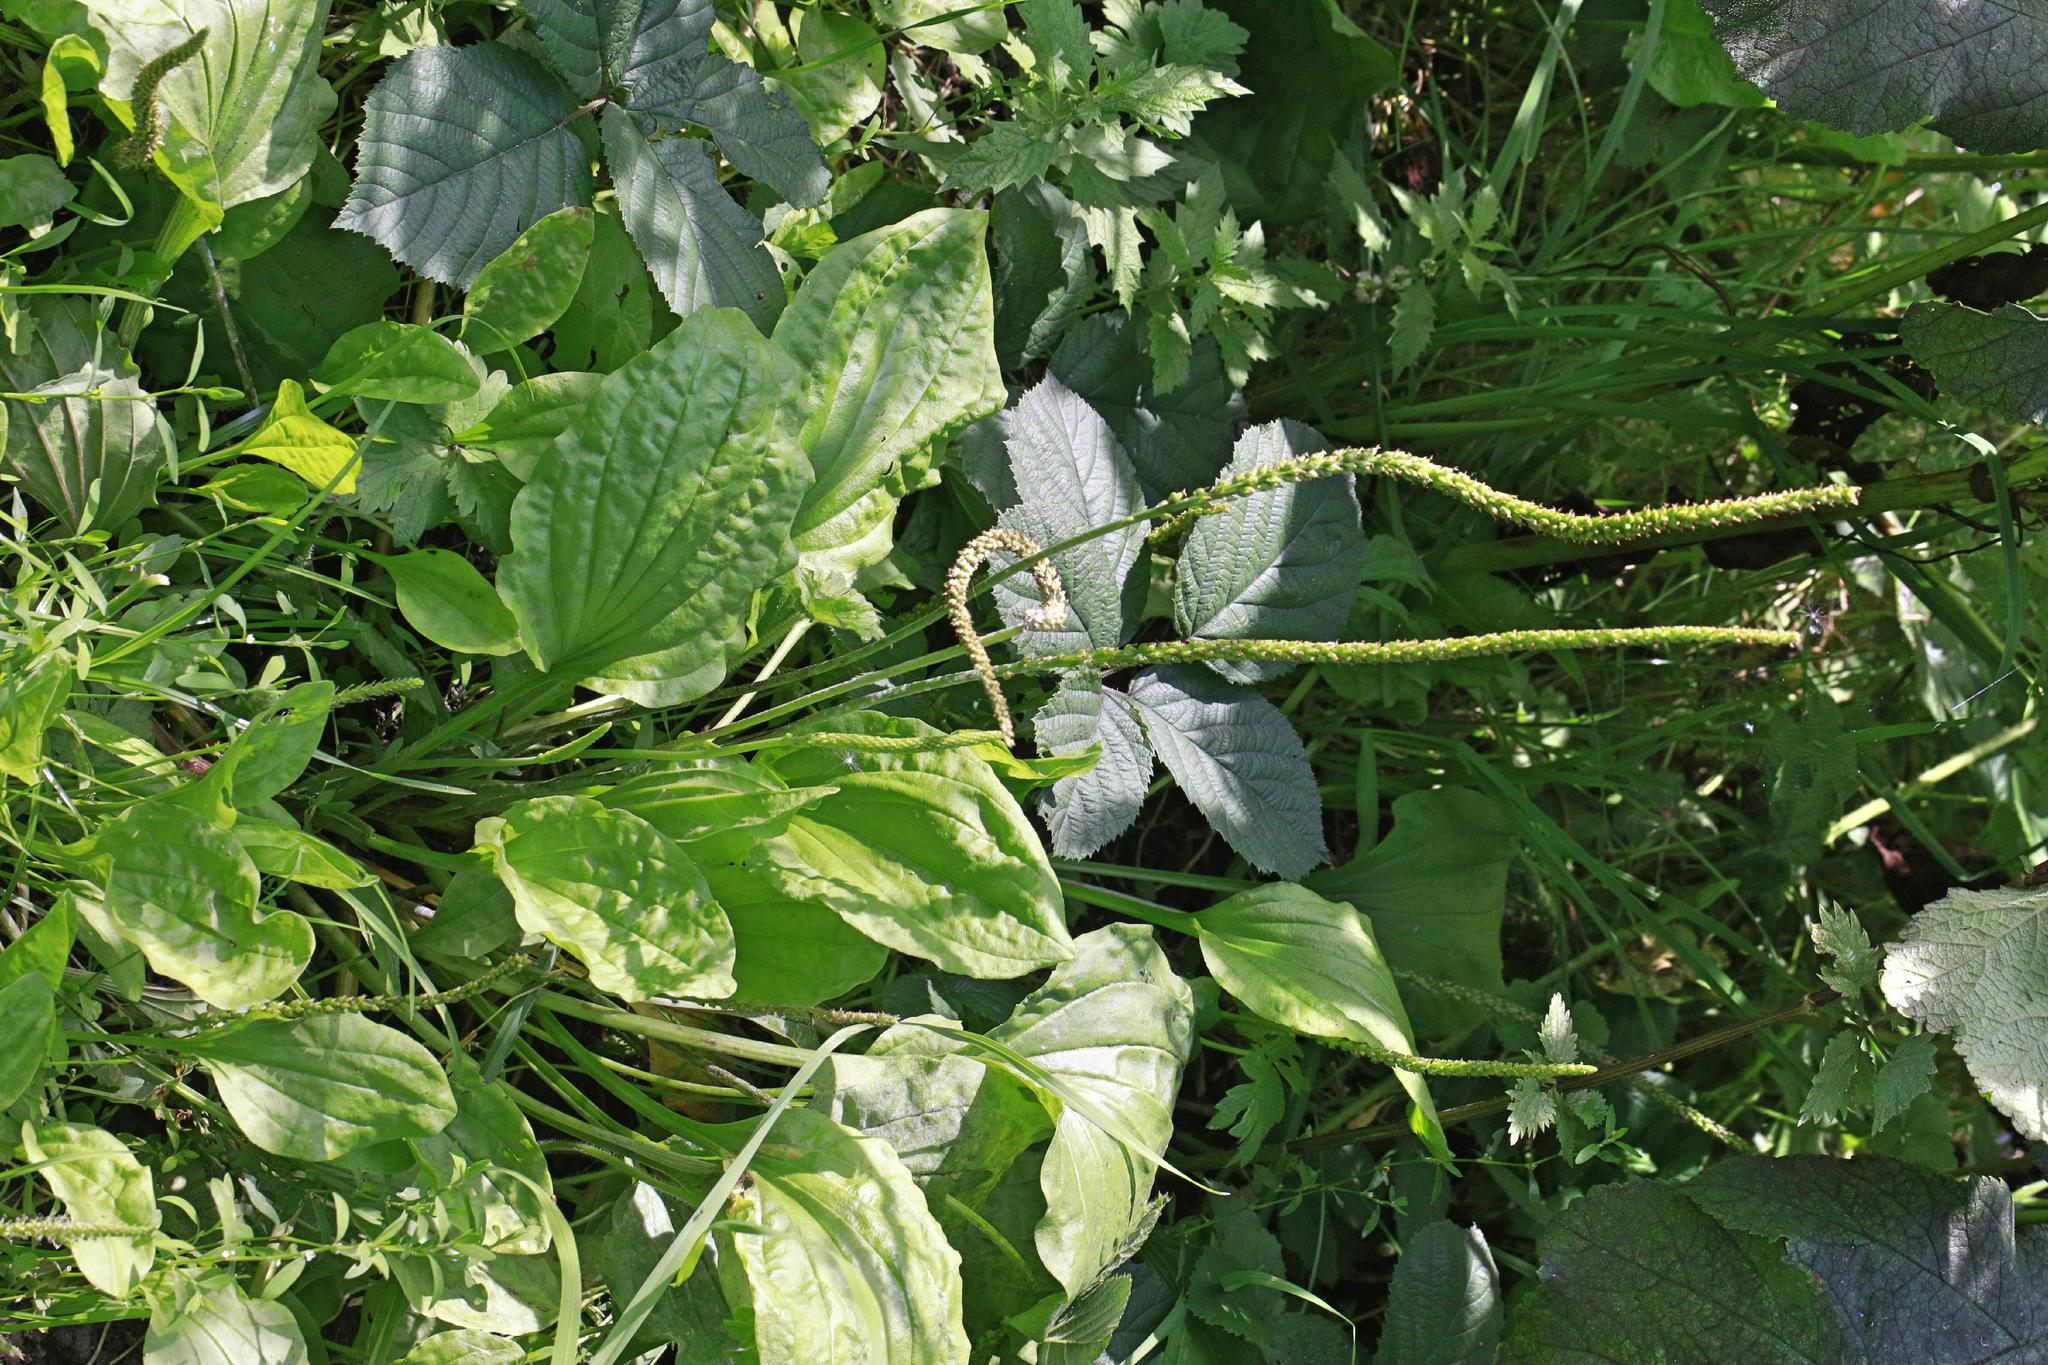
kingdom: Plantae
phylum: Tracheophyta
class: Magnoliopsida
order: Lamiales
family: Plantaginaceae
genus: Plantago
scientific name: Plantago major
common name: Common plantain
